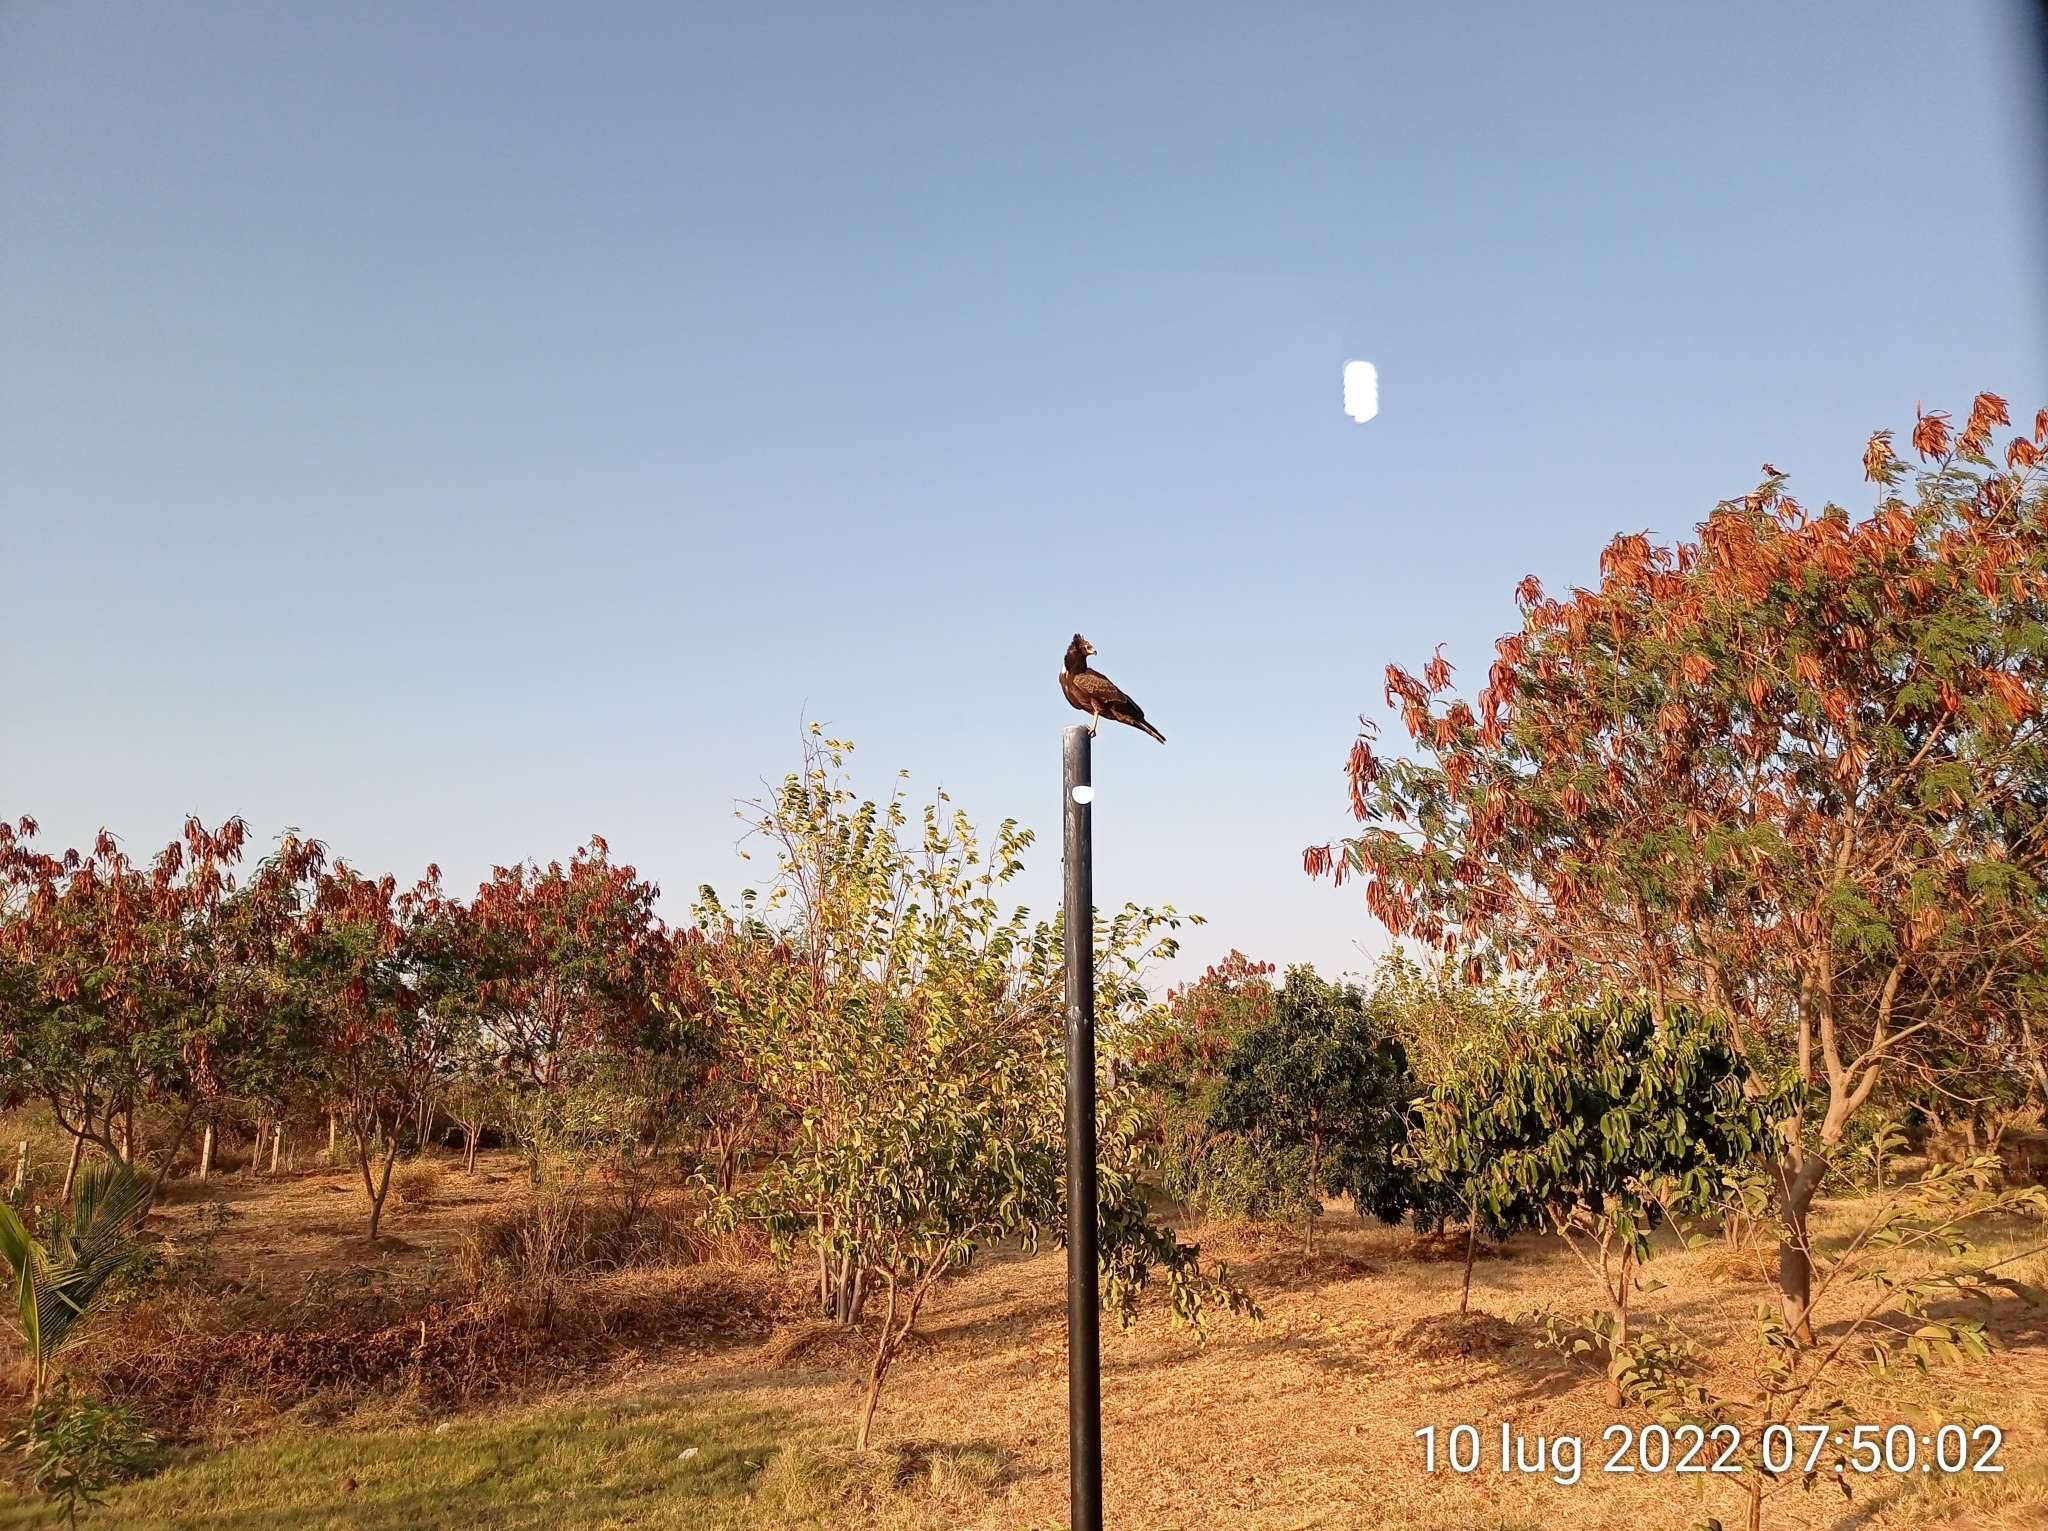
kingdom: Animalia
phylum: Chordata
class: Aves
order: Accipitriformes
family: Accipitridae
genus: Polyboroides
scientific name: Polyboroides typus
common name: African harrier-hawk
